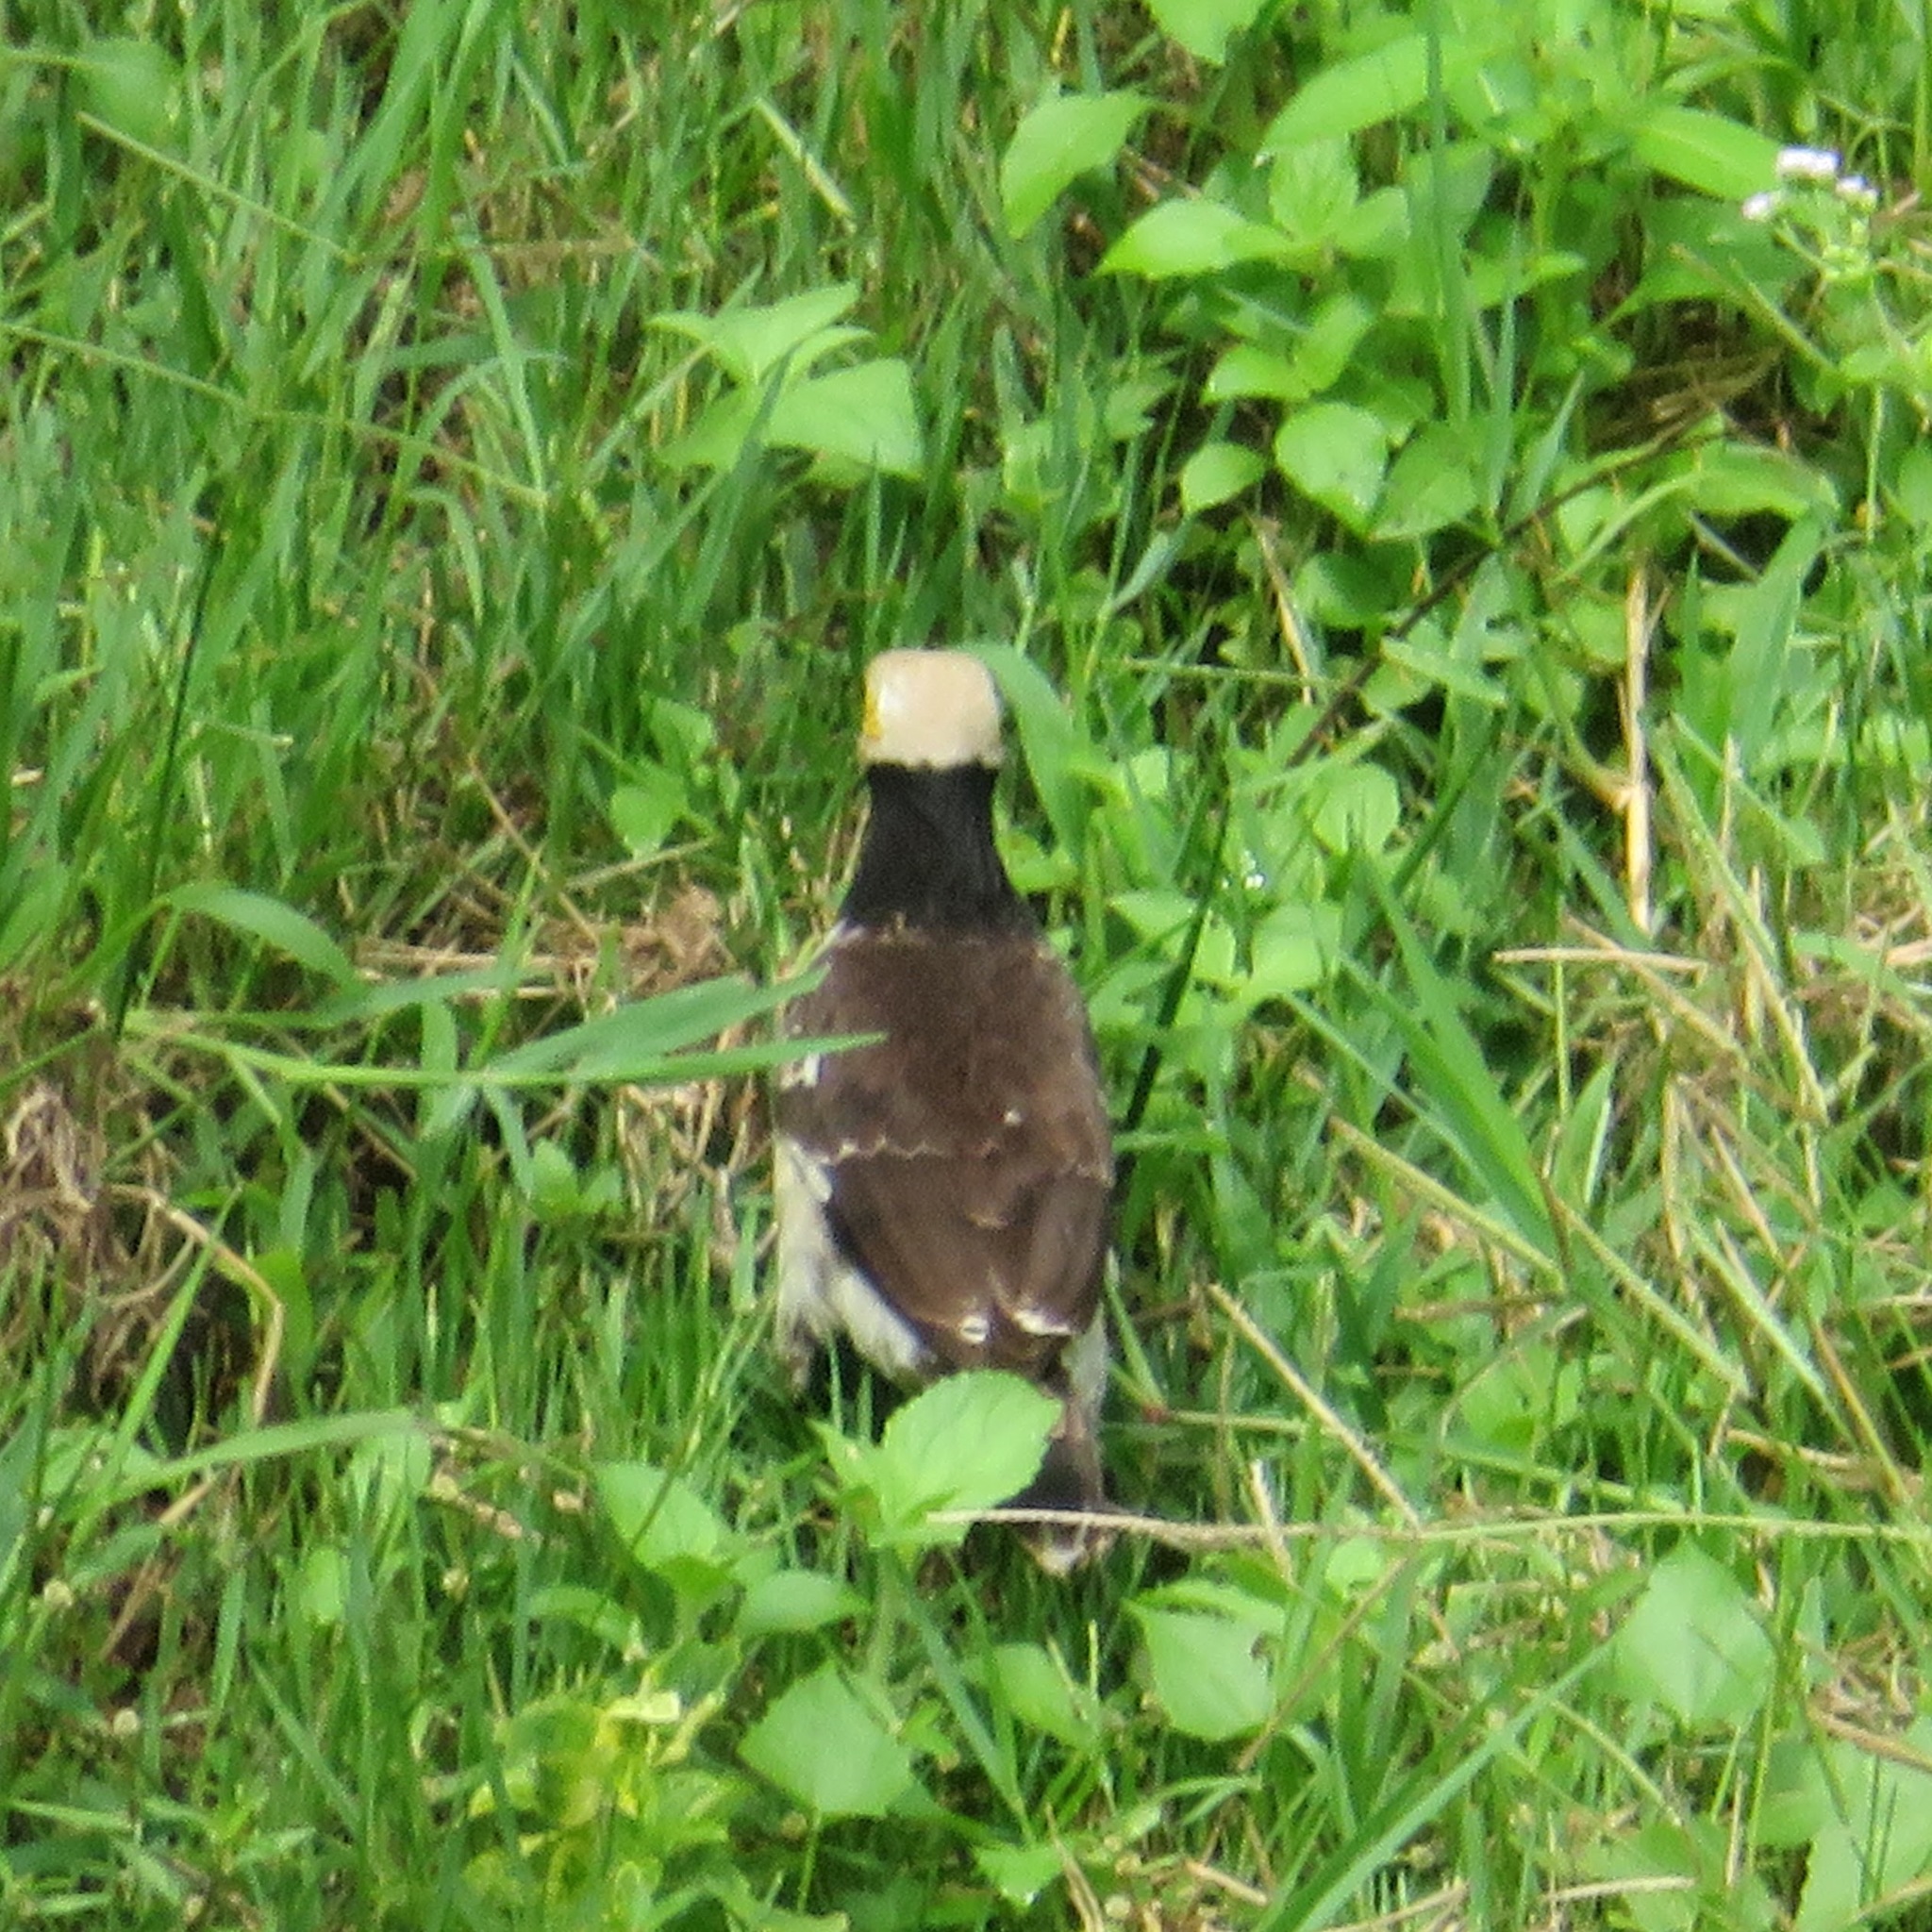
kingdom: Animalia
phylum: Chordata
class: Aves
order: Passeriformes
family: Sturnidae
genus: Gracupica
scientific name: Gracupica nigricollis
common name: Black-collared starling
